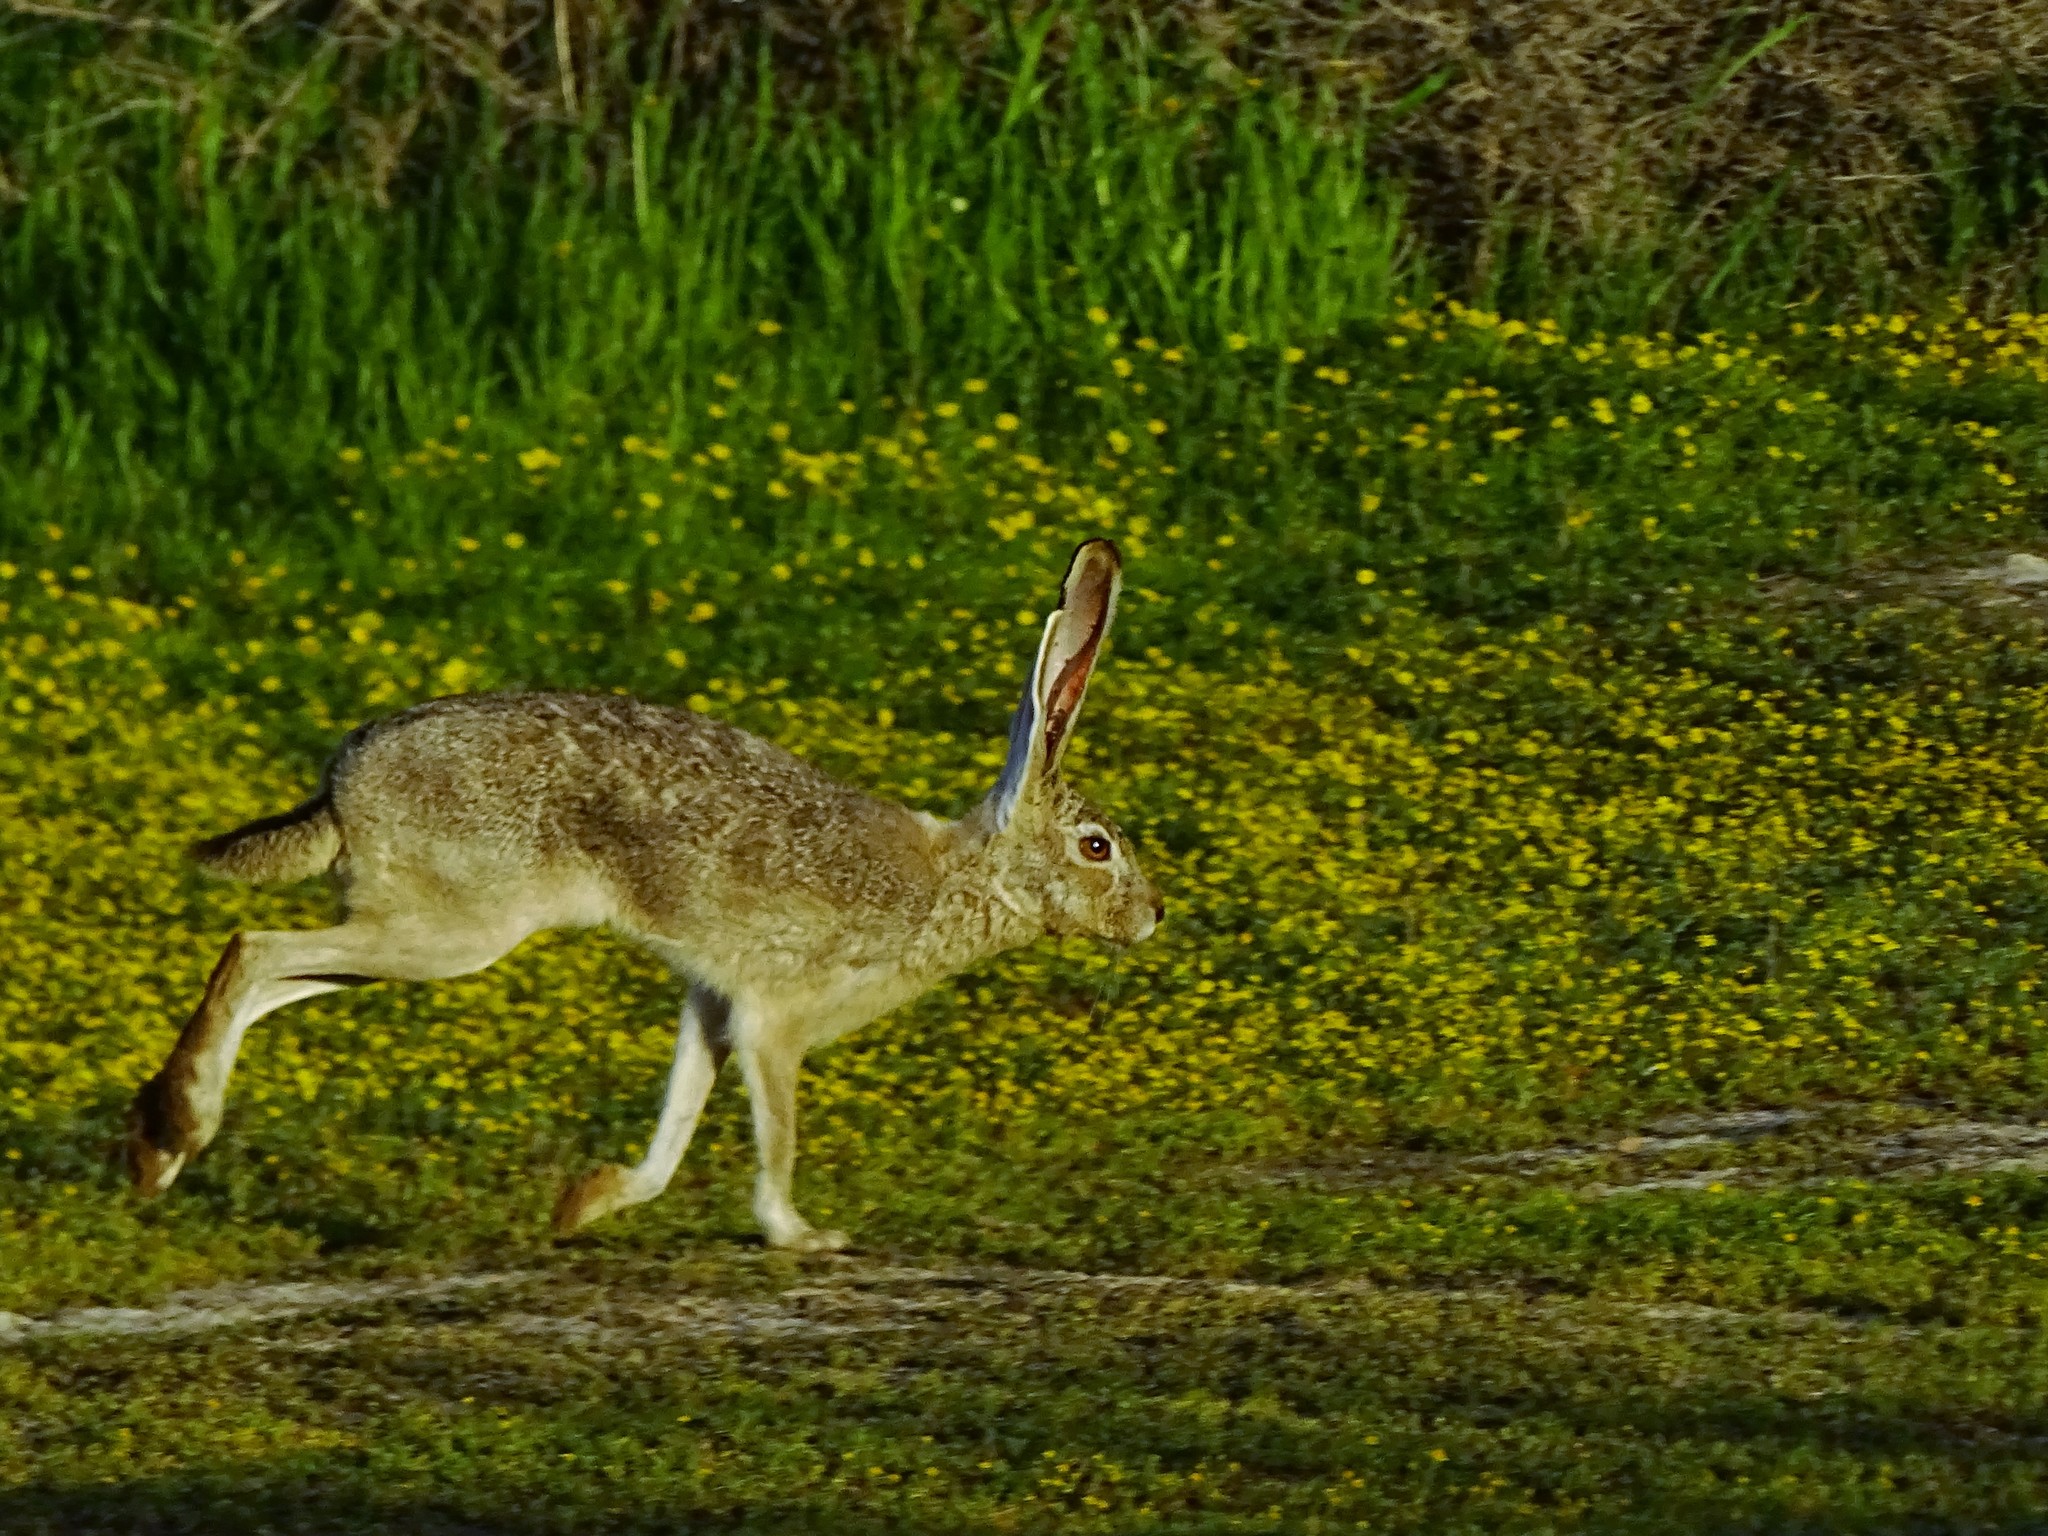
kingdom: Animalia
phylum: Chordata
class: Mammalia
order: Lagomorpha
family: Leporidae
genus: Lepus
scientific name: Lepus californicus
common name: Black-tailed jackrabbit
